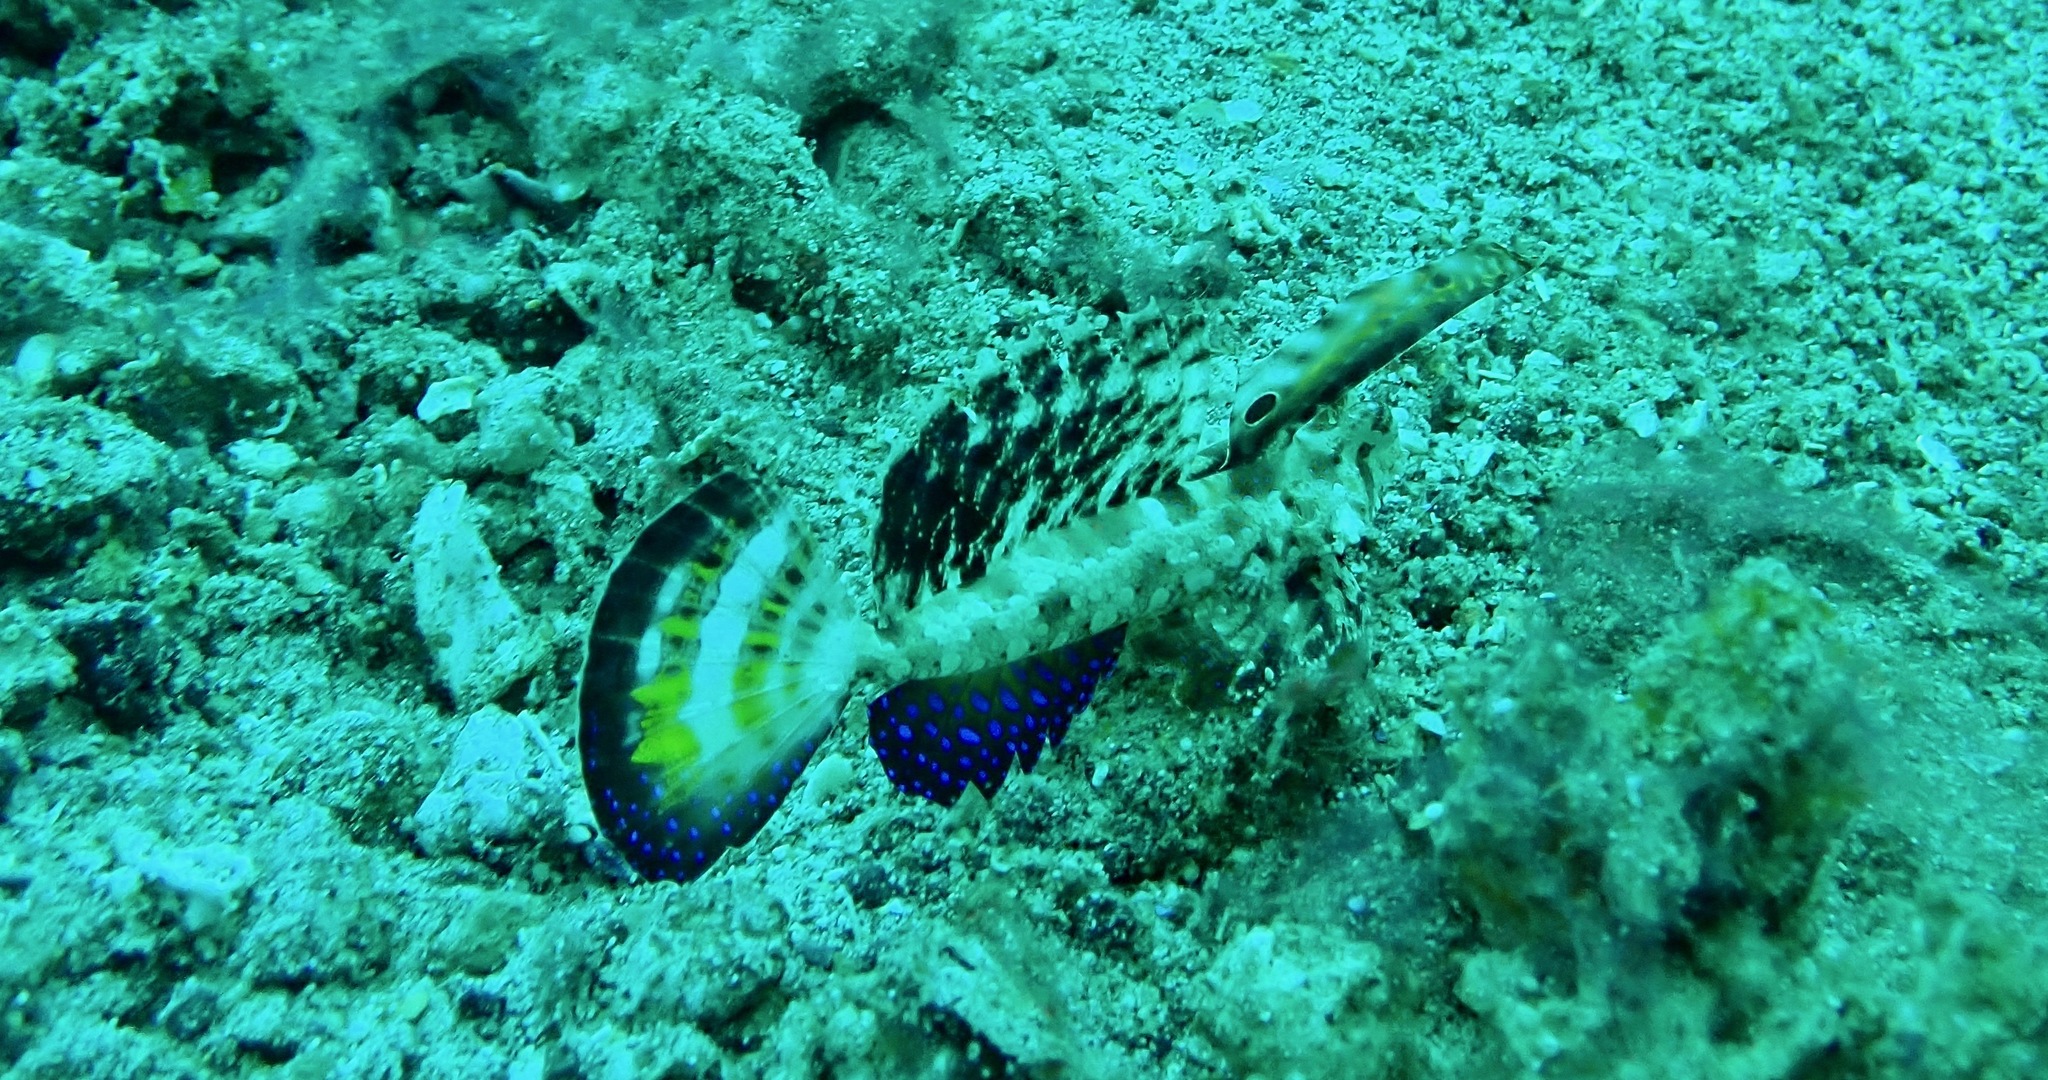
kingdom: Animalia
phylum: Chordata
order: Perciformes
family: Callionymidae
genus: Dactylopus
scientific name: Dactylopus kuiteri
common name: Kuiter's dragonet
